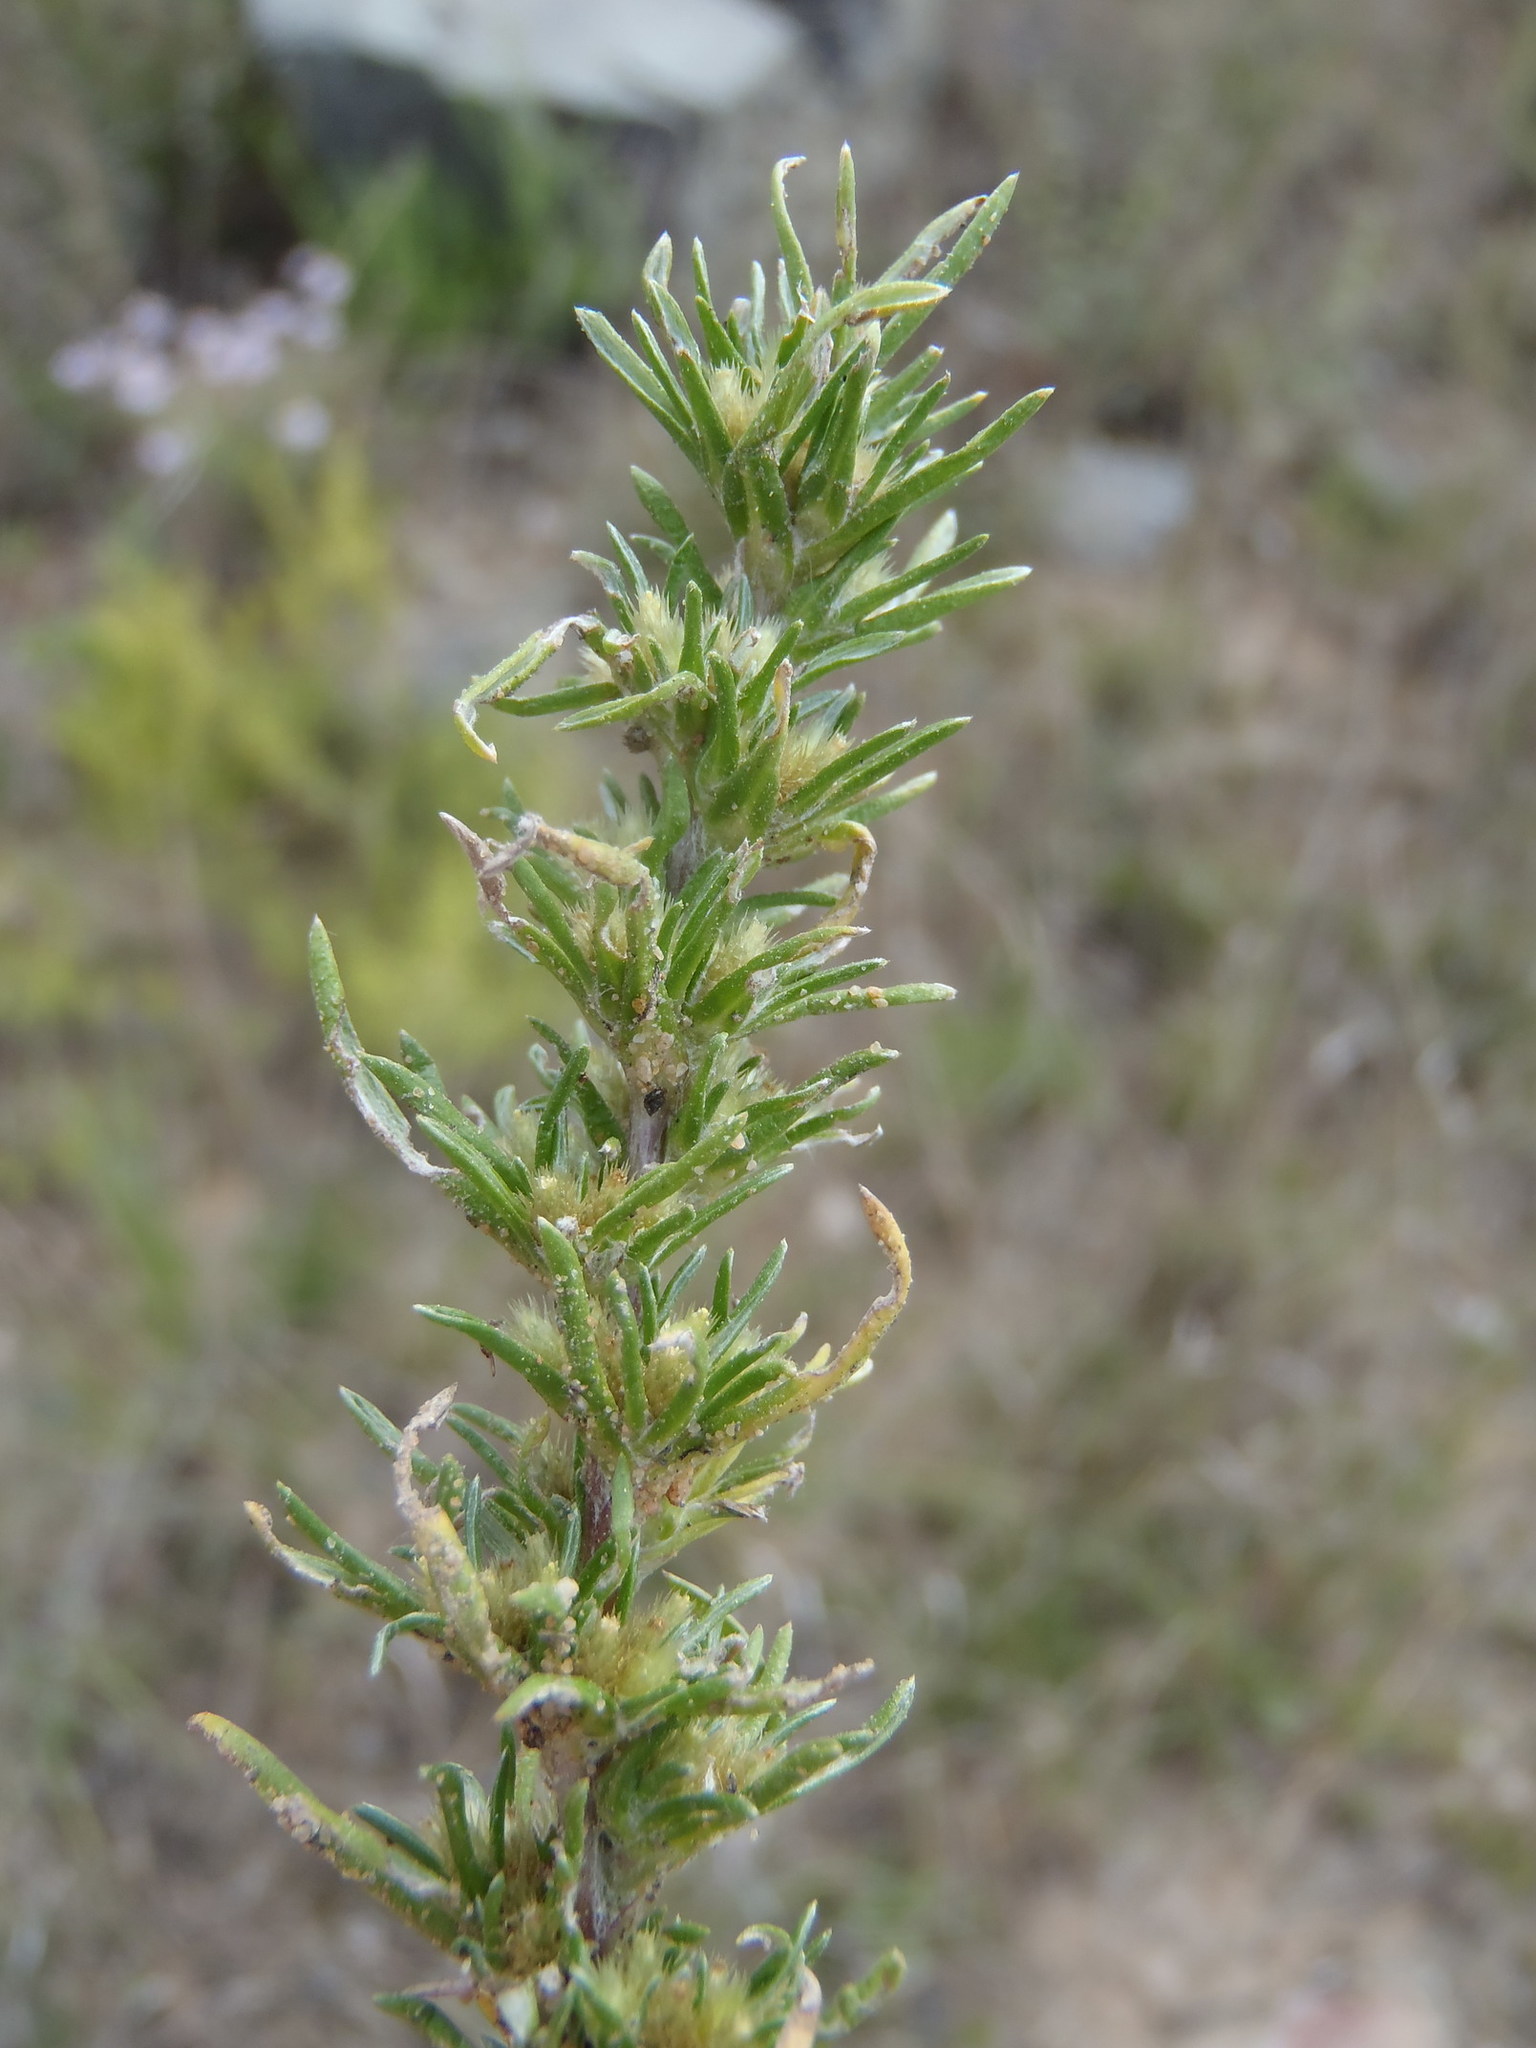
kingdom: Plantae
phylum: Tracheophyta
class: Magnoliopsida
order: Asterales
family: Asteraceae
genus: Ifloga
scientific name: Ifloga glomerata
